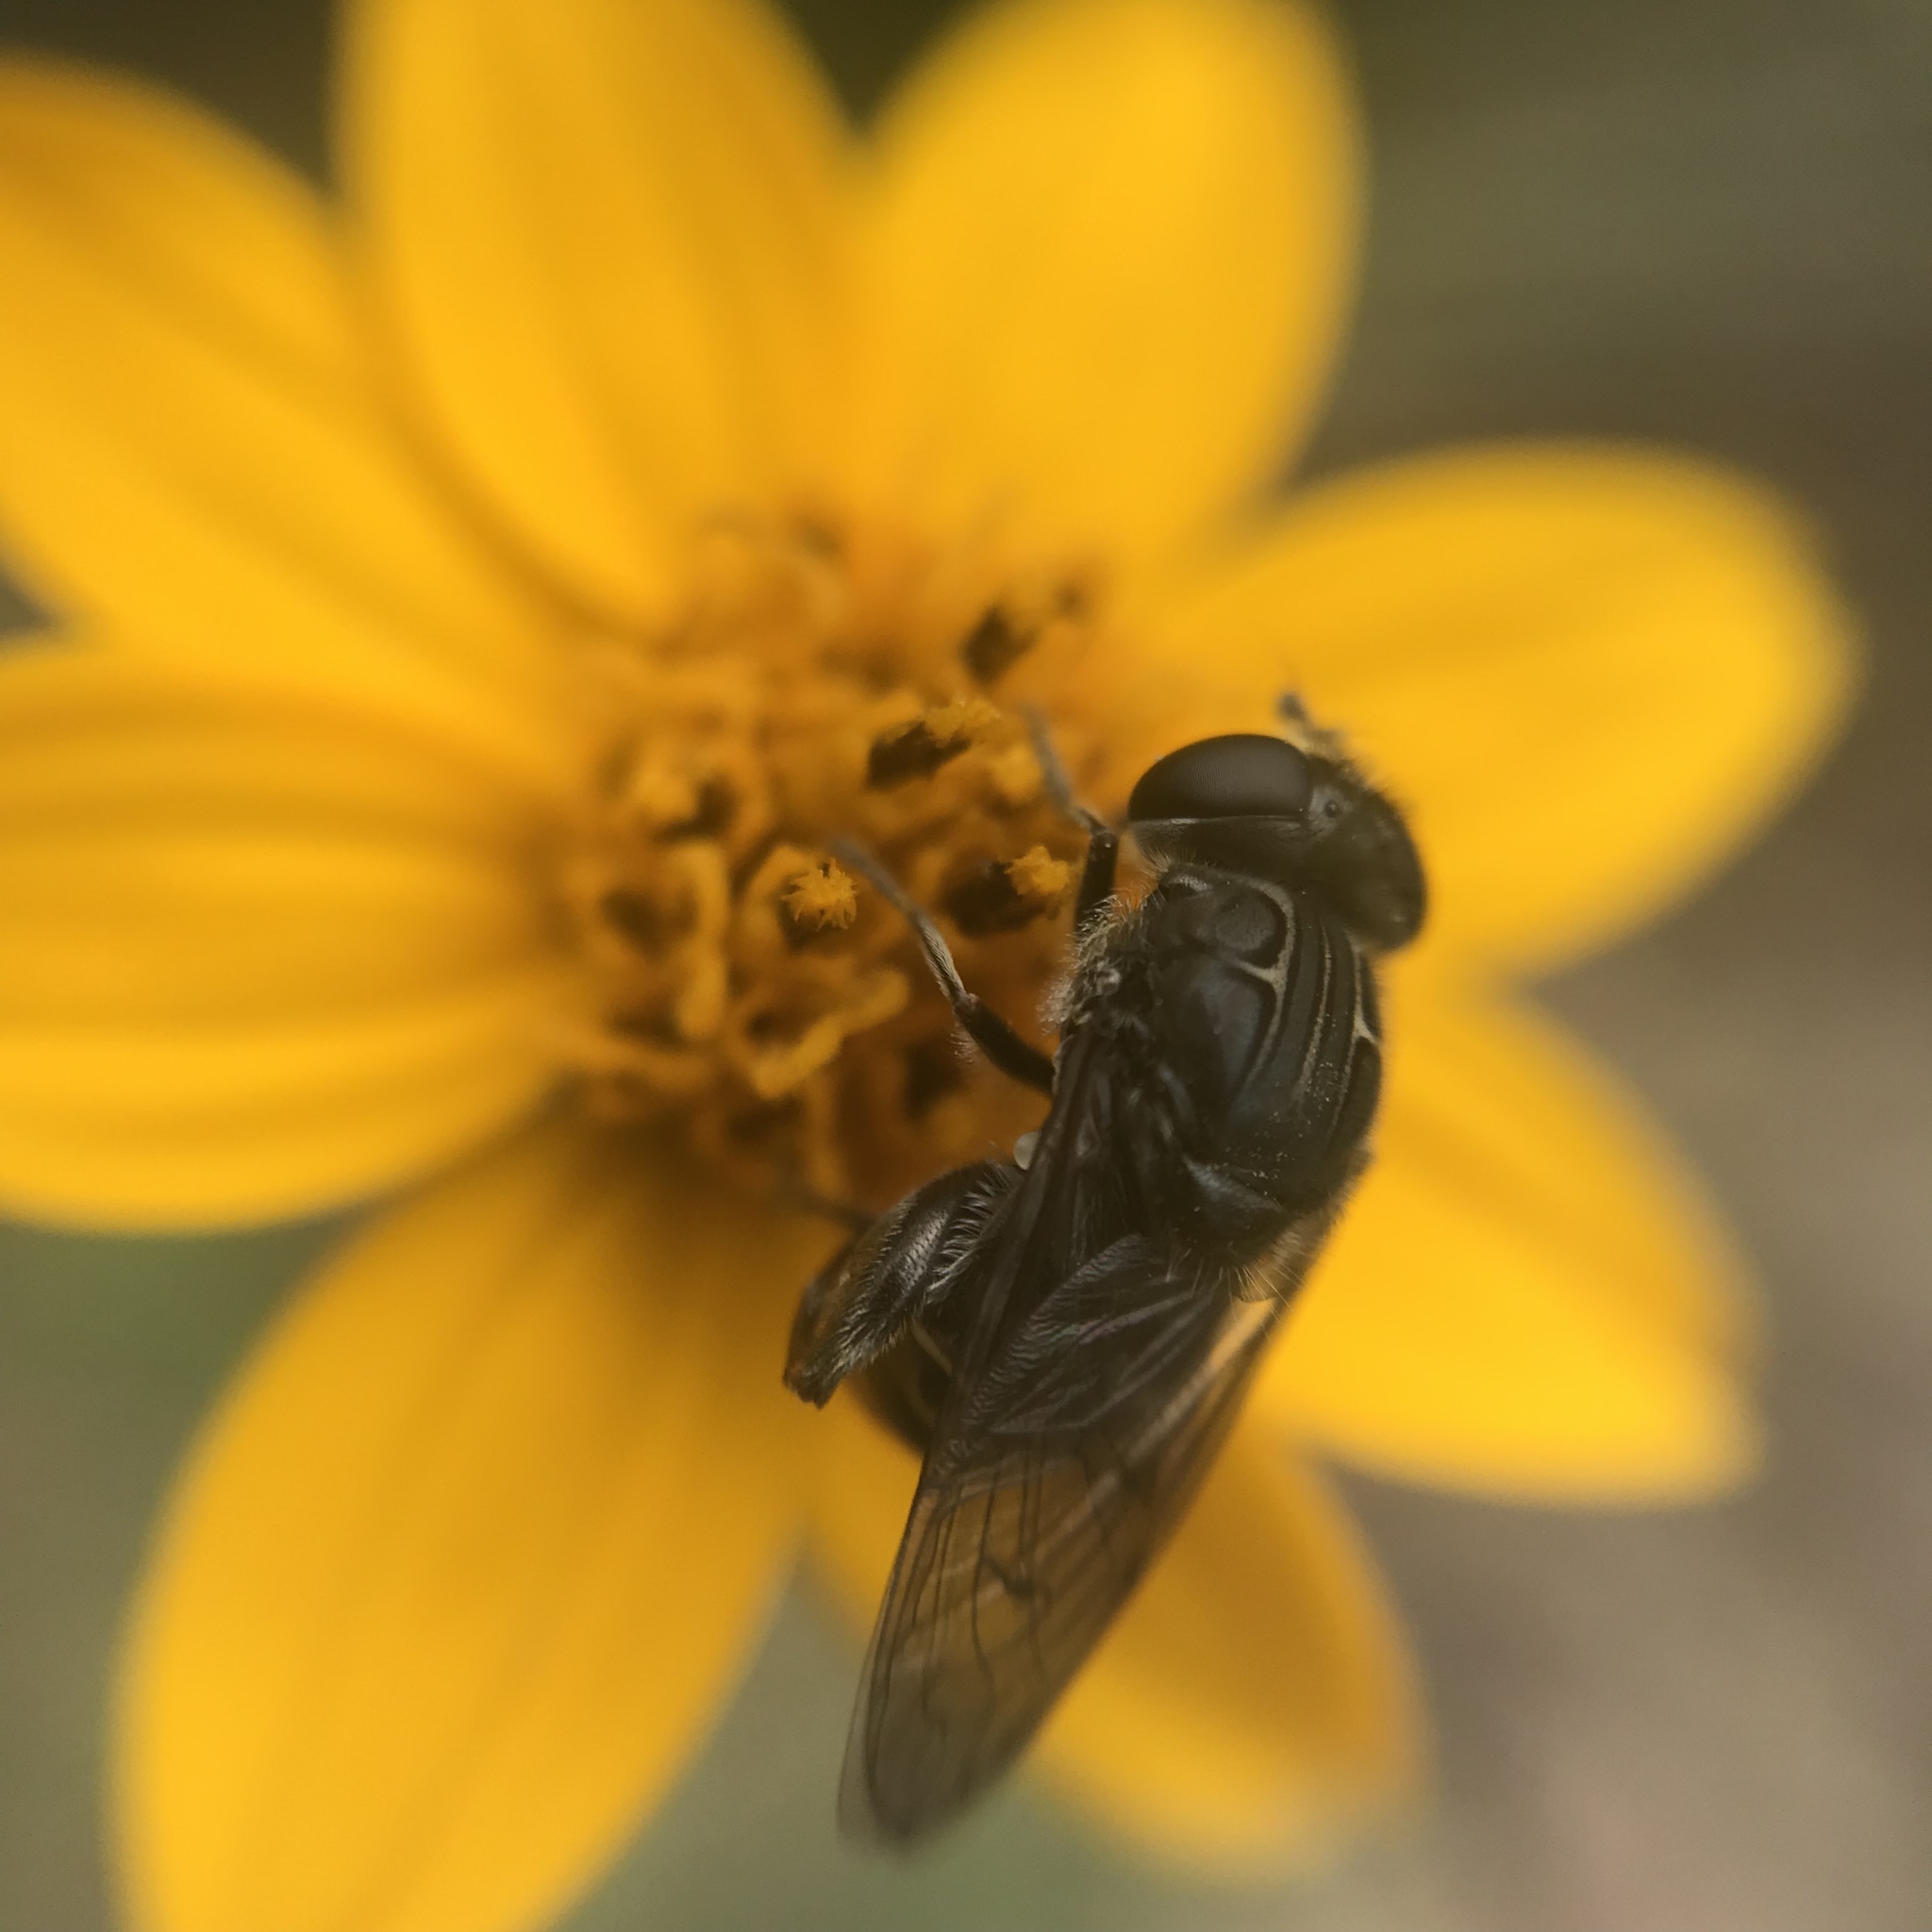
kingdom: Animalia
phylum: Arthropoda
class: Insecta
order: Diptera
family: Syrphidae
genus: Asemosyrphus
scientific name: Asemosyrphus
